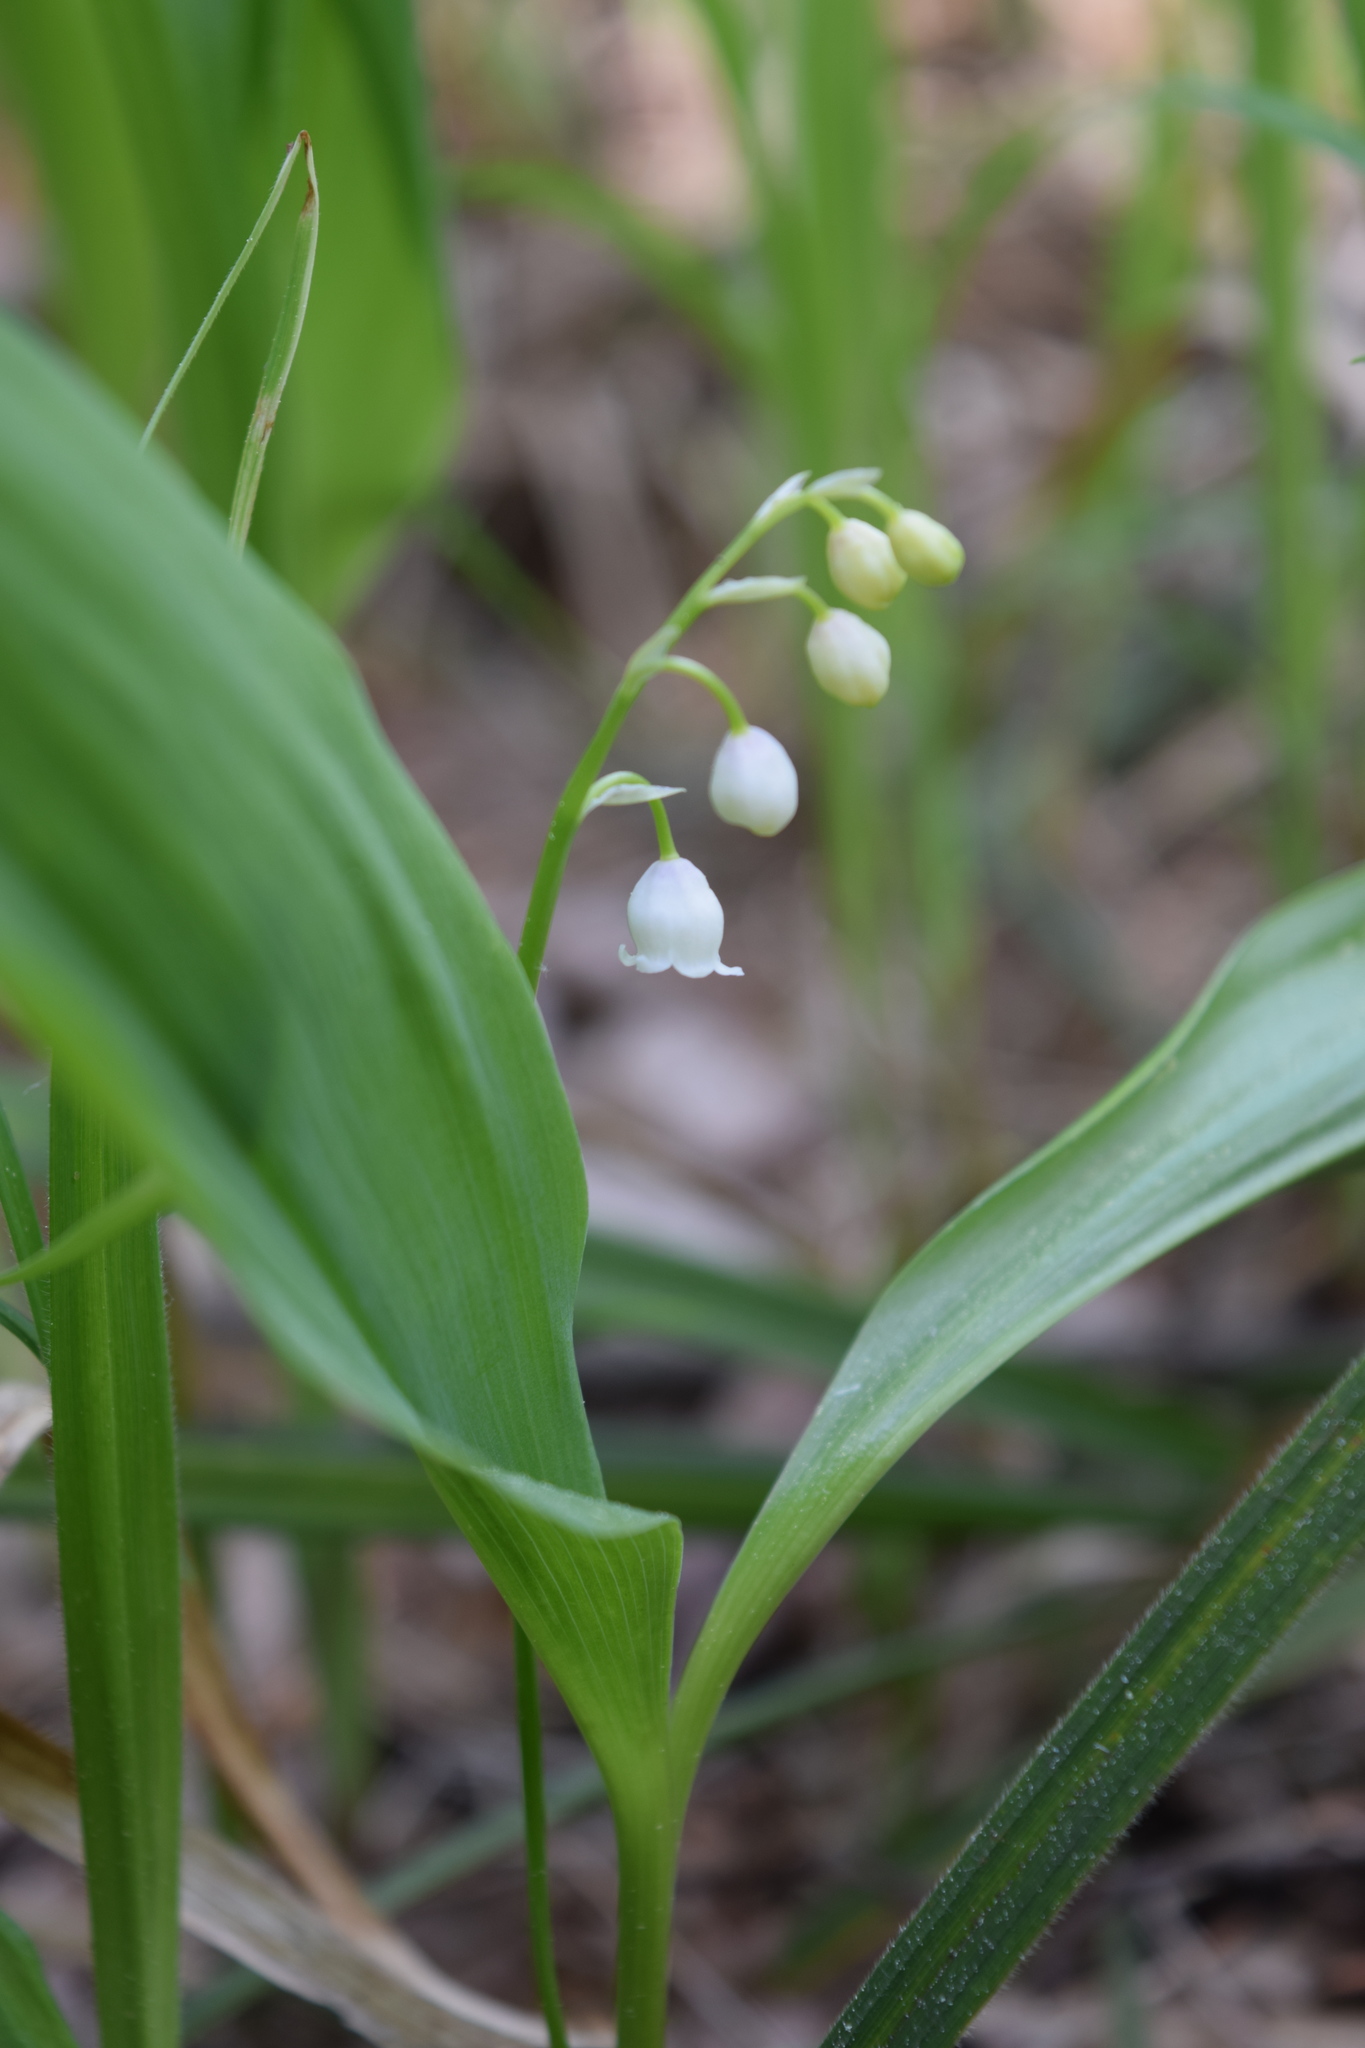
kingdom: Plantae
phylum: Tracheophyta
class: Liliopsida
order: Asparagales
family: Asparagaceae
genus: Convallaria
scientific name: Convallaria majalis
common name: Lily-of-the-valley
